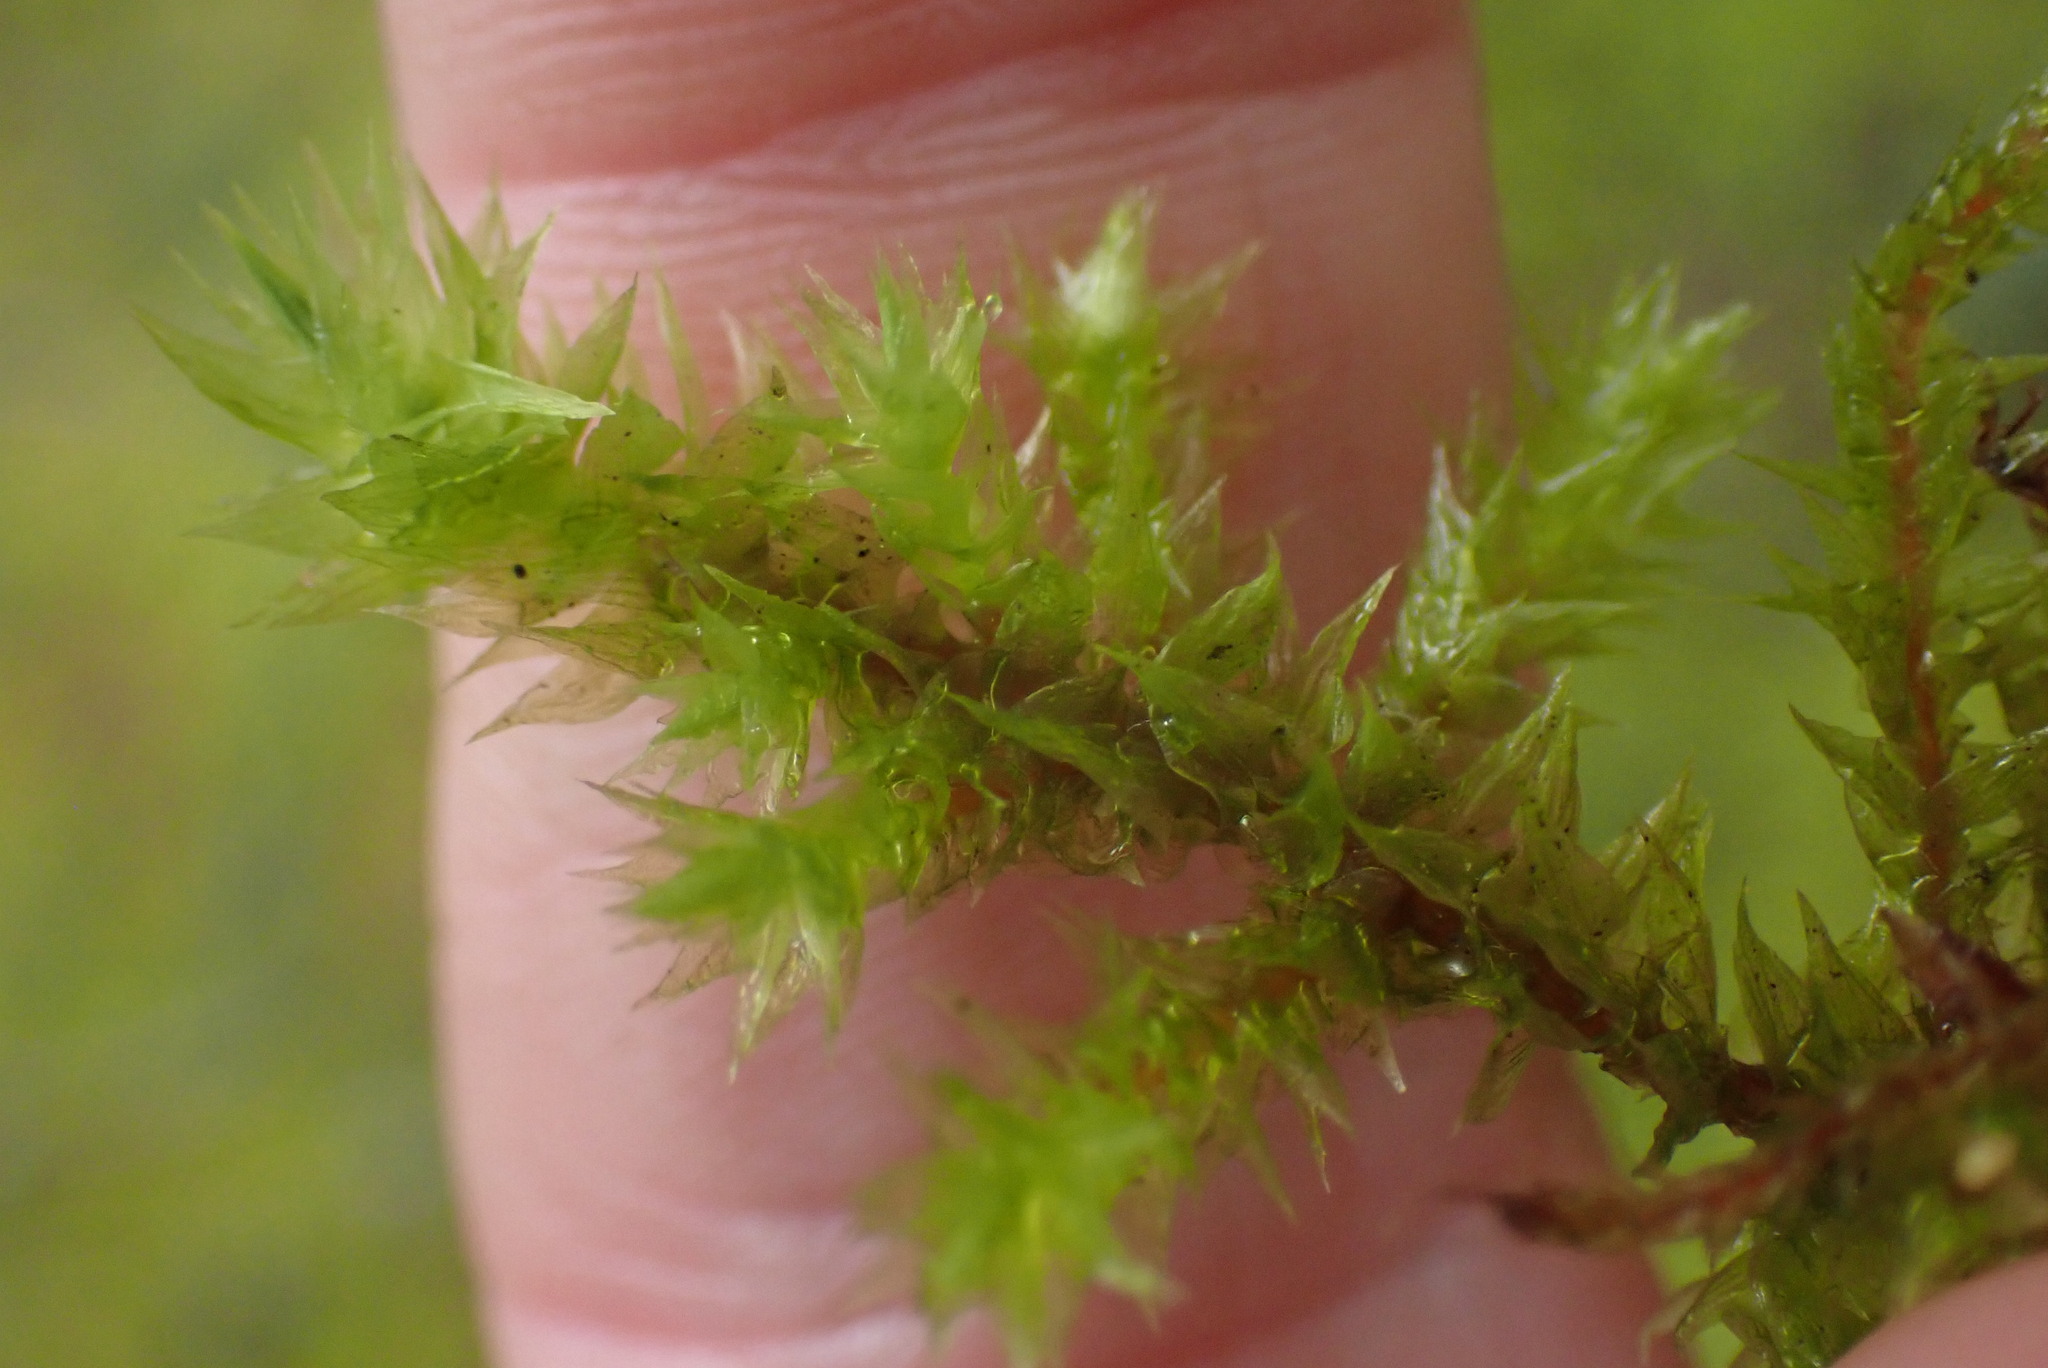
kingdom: Plantae
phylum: Bryophyta
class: Bryopsida
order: Hypnales
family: Hylocomiaceae
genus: Hylocomiadelphus
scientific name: Hylocomiadelphus triquetrus
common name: Rough goose neck moss
